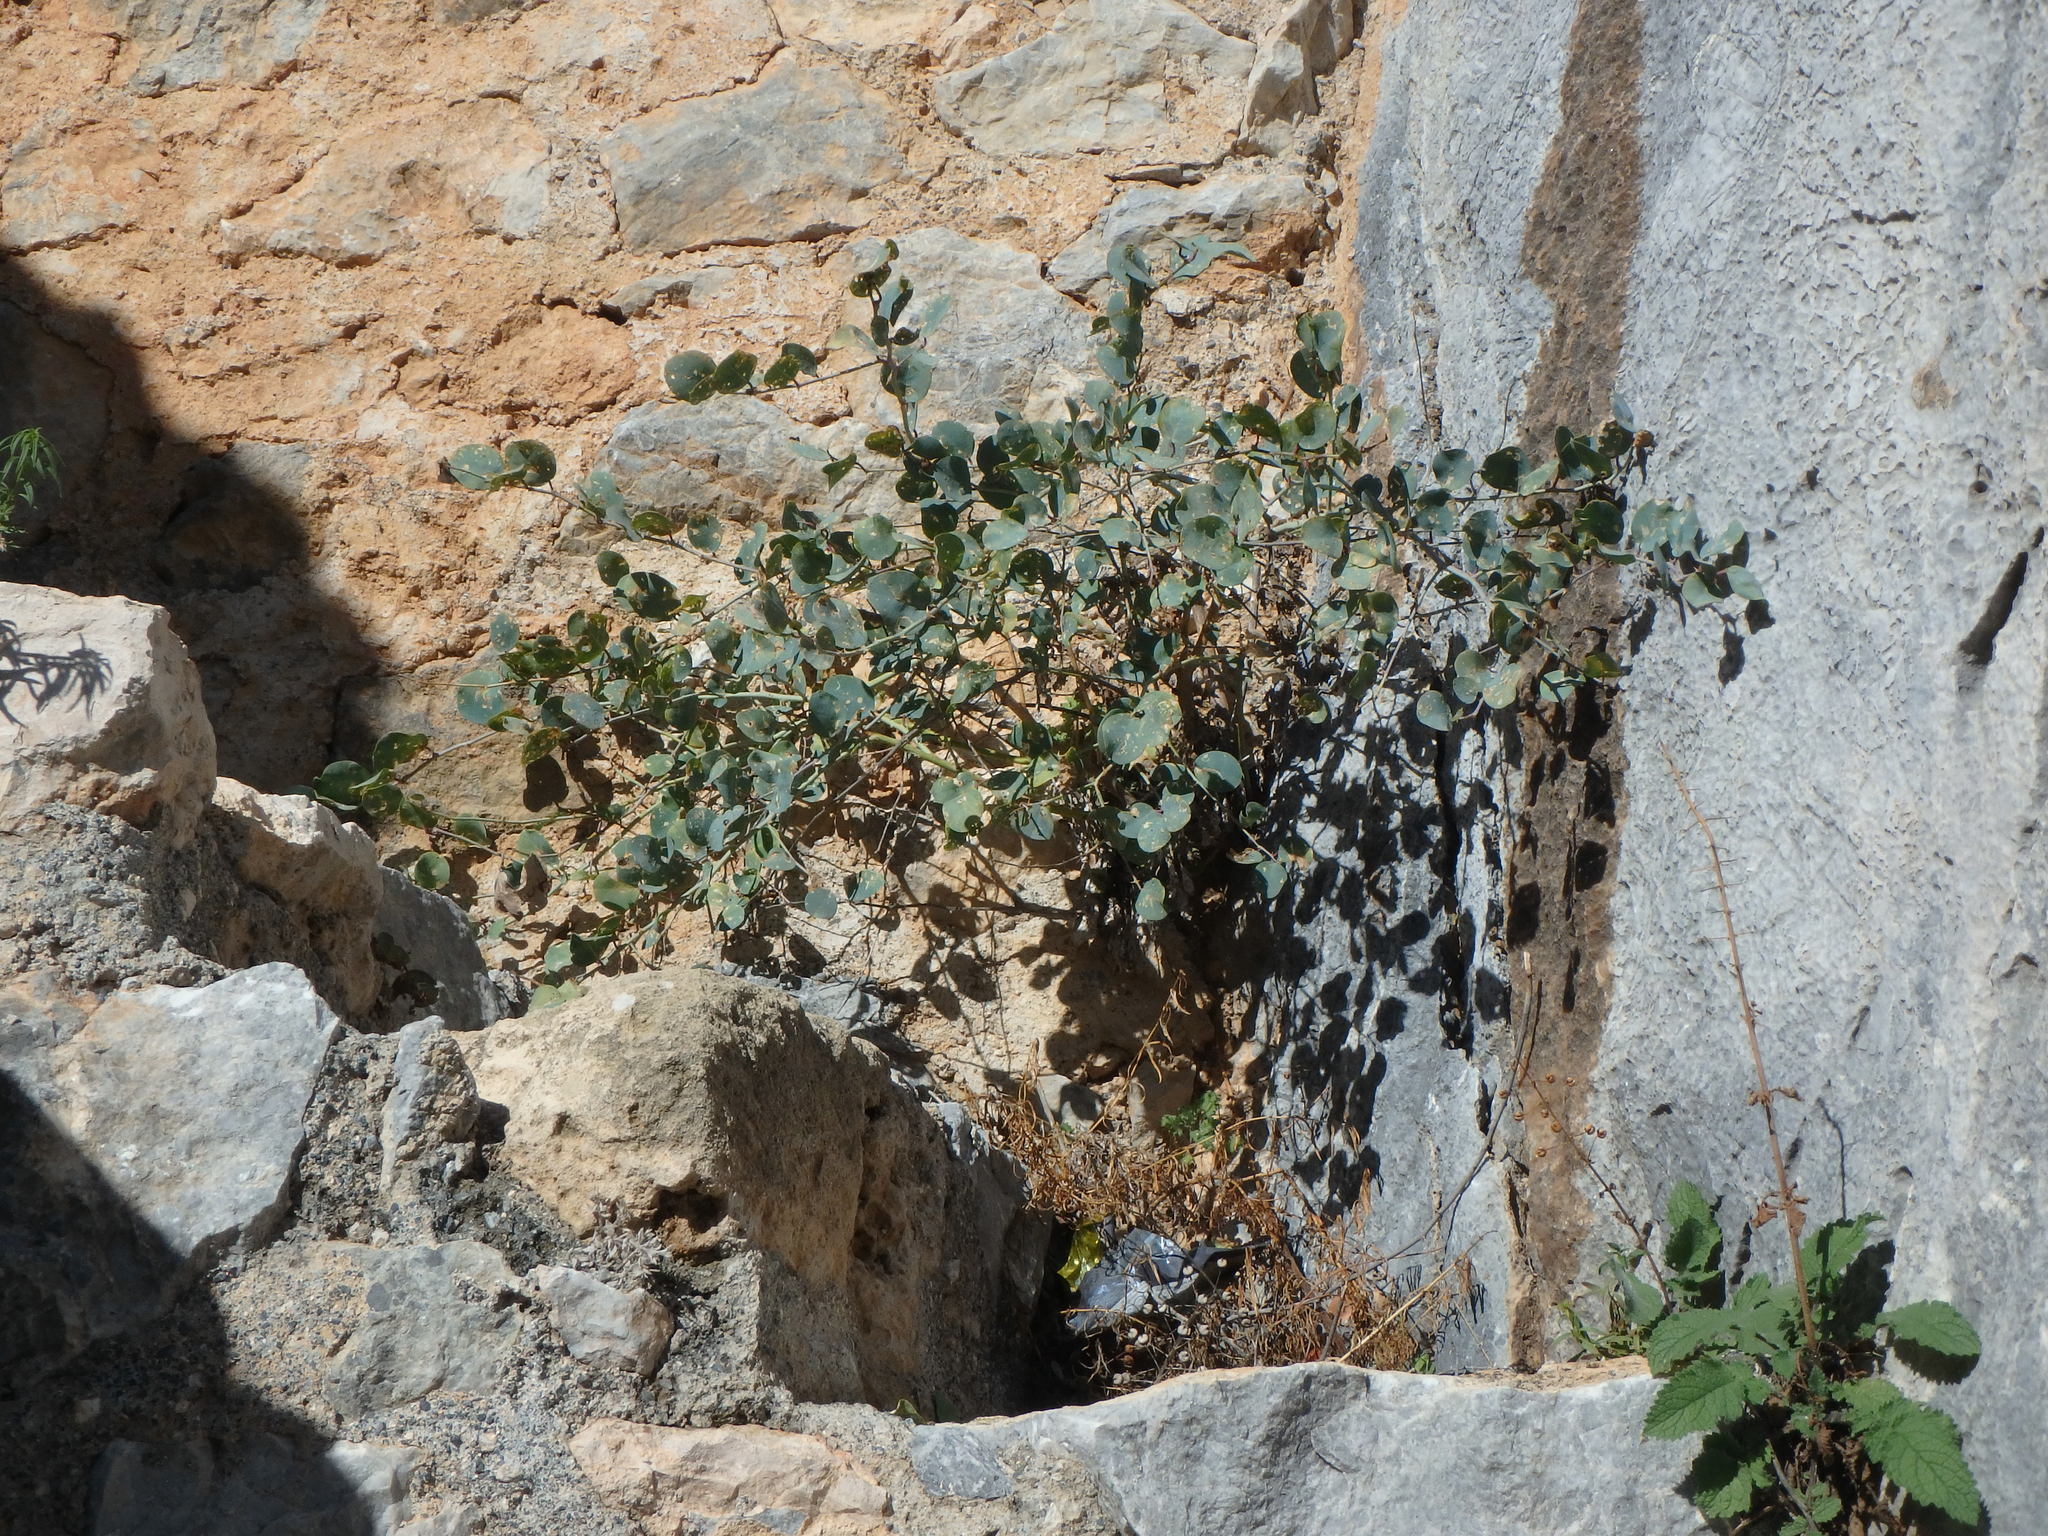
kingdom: Plantae
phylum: Tracheophyta
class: Magnoliopsida
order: Brassicales
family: Capparaceae
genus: Capparis
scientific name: Capparis spinosa
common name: Caper
